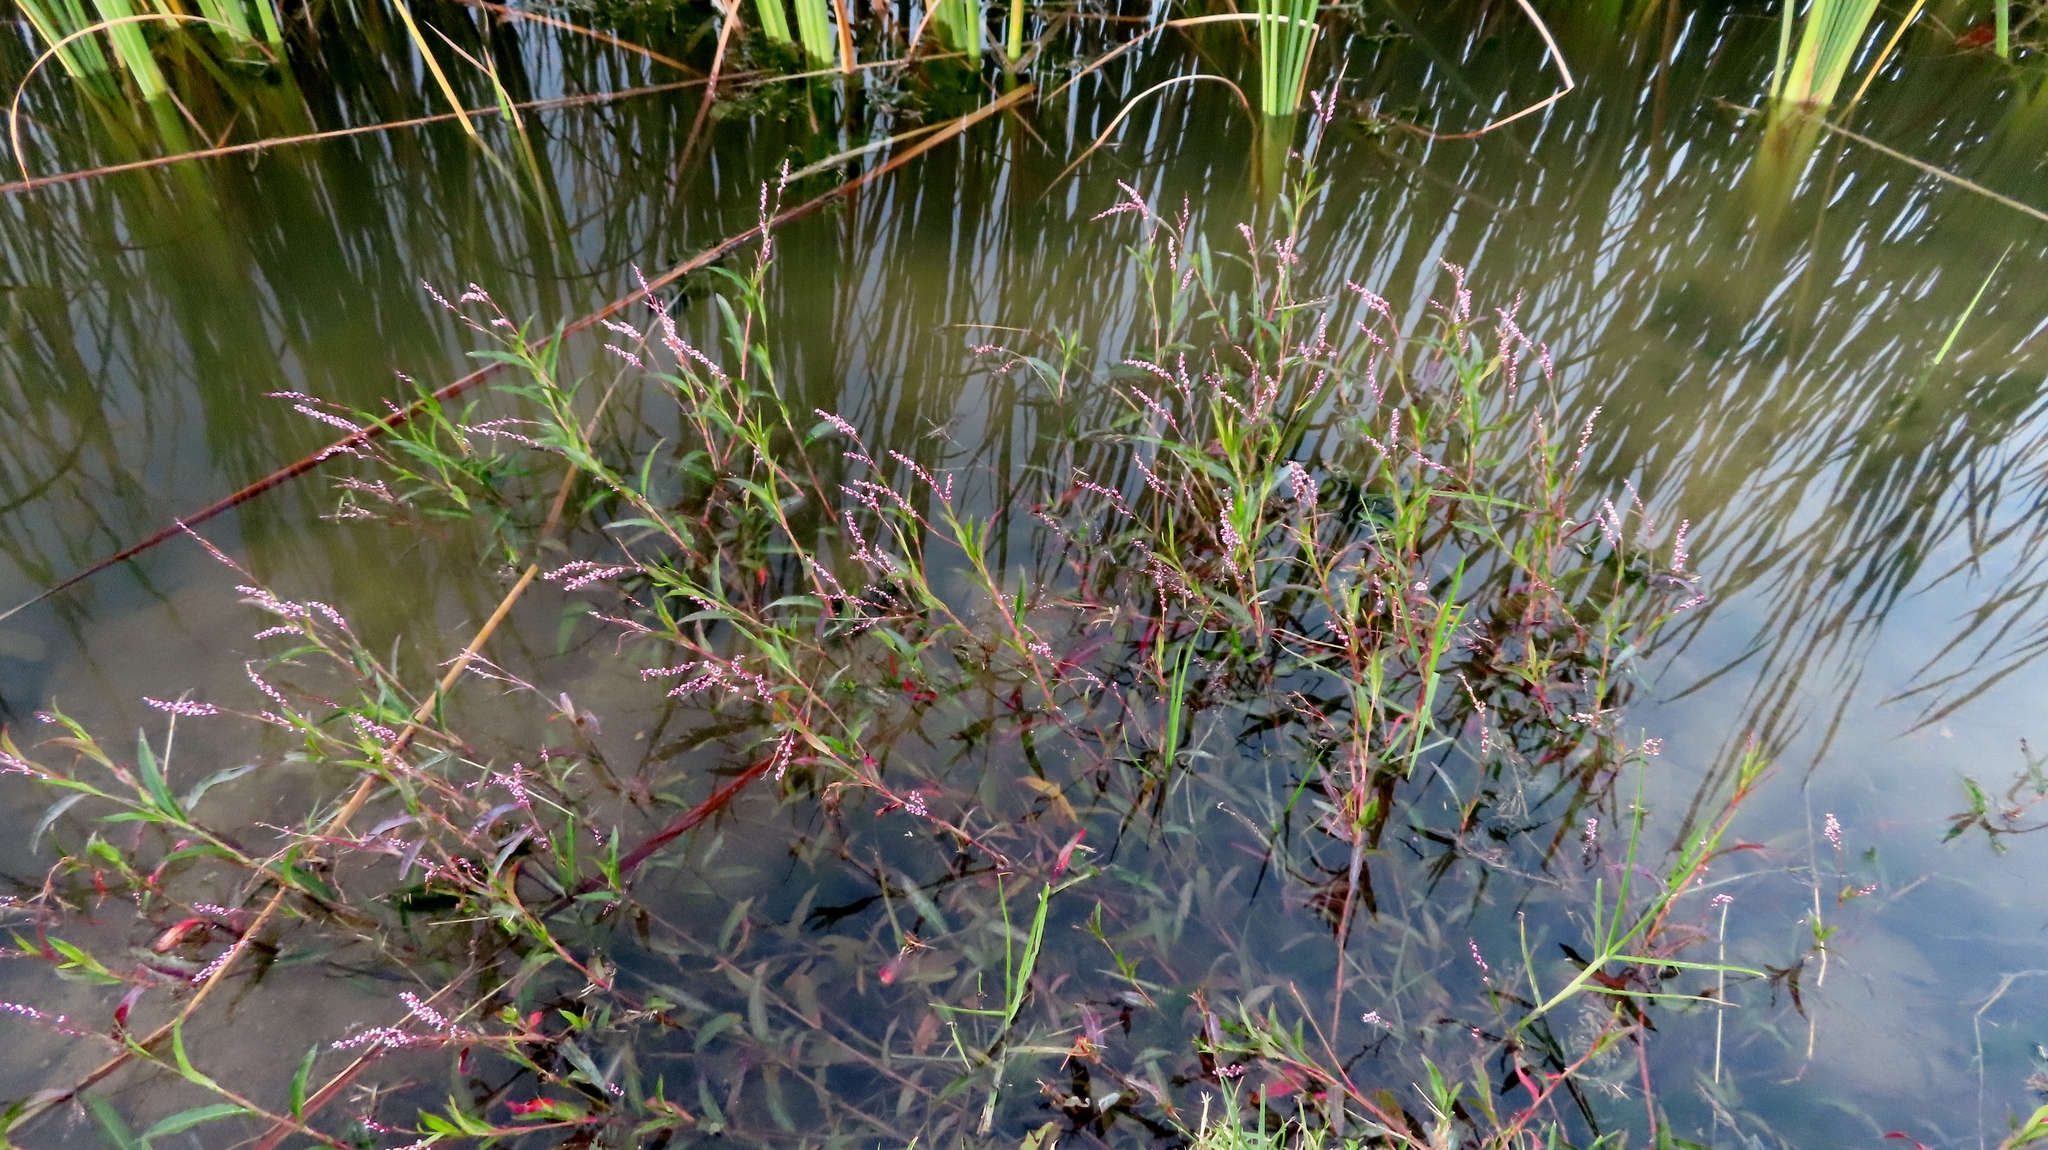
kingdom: Plantae
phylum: Tracheophyta
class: Magnoliopsida
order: Caryophyllales
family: Polygonaceae
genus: Persicaria
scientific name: Persicaria decipiens
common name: Willow-weed
